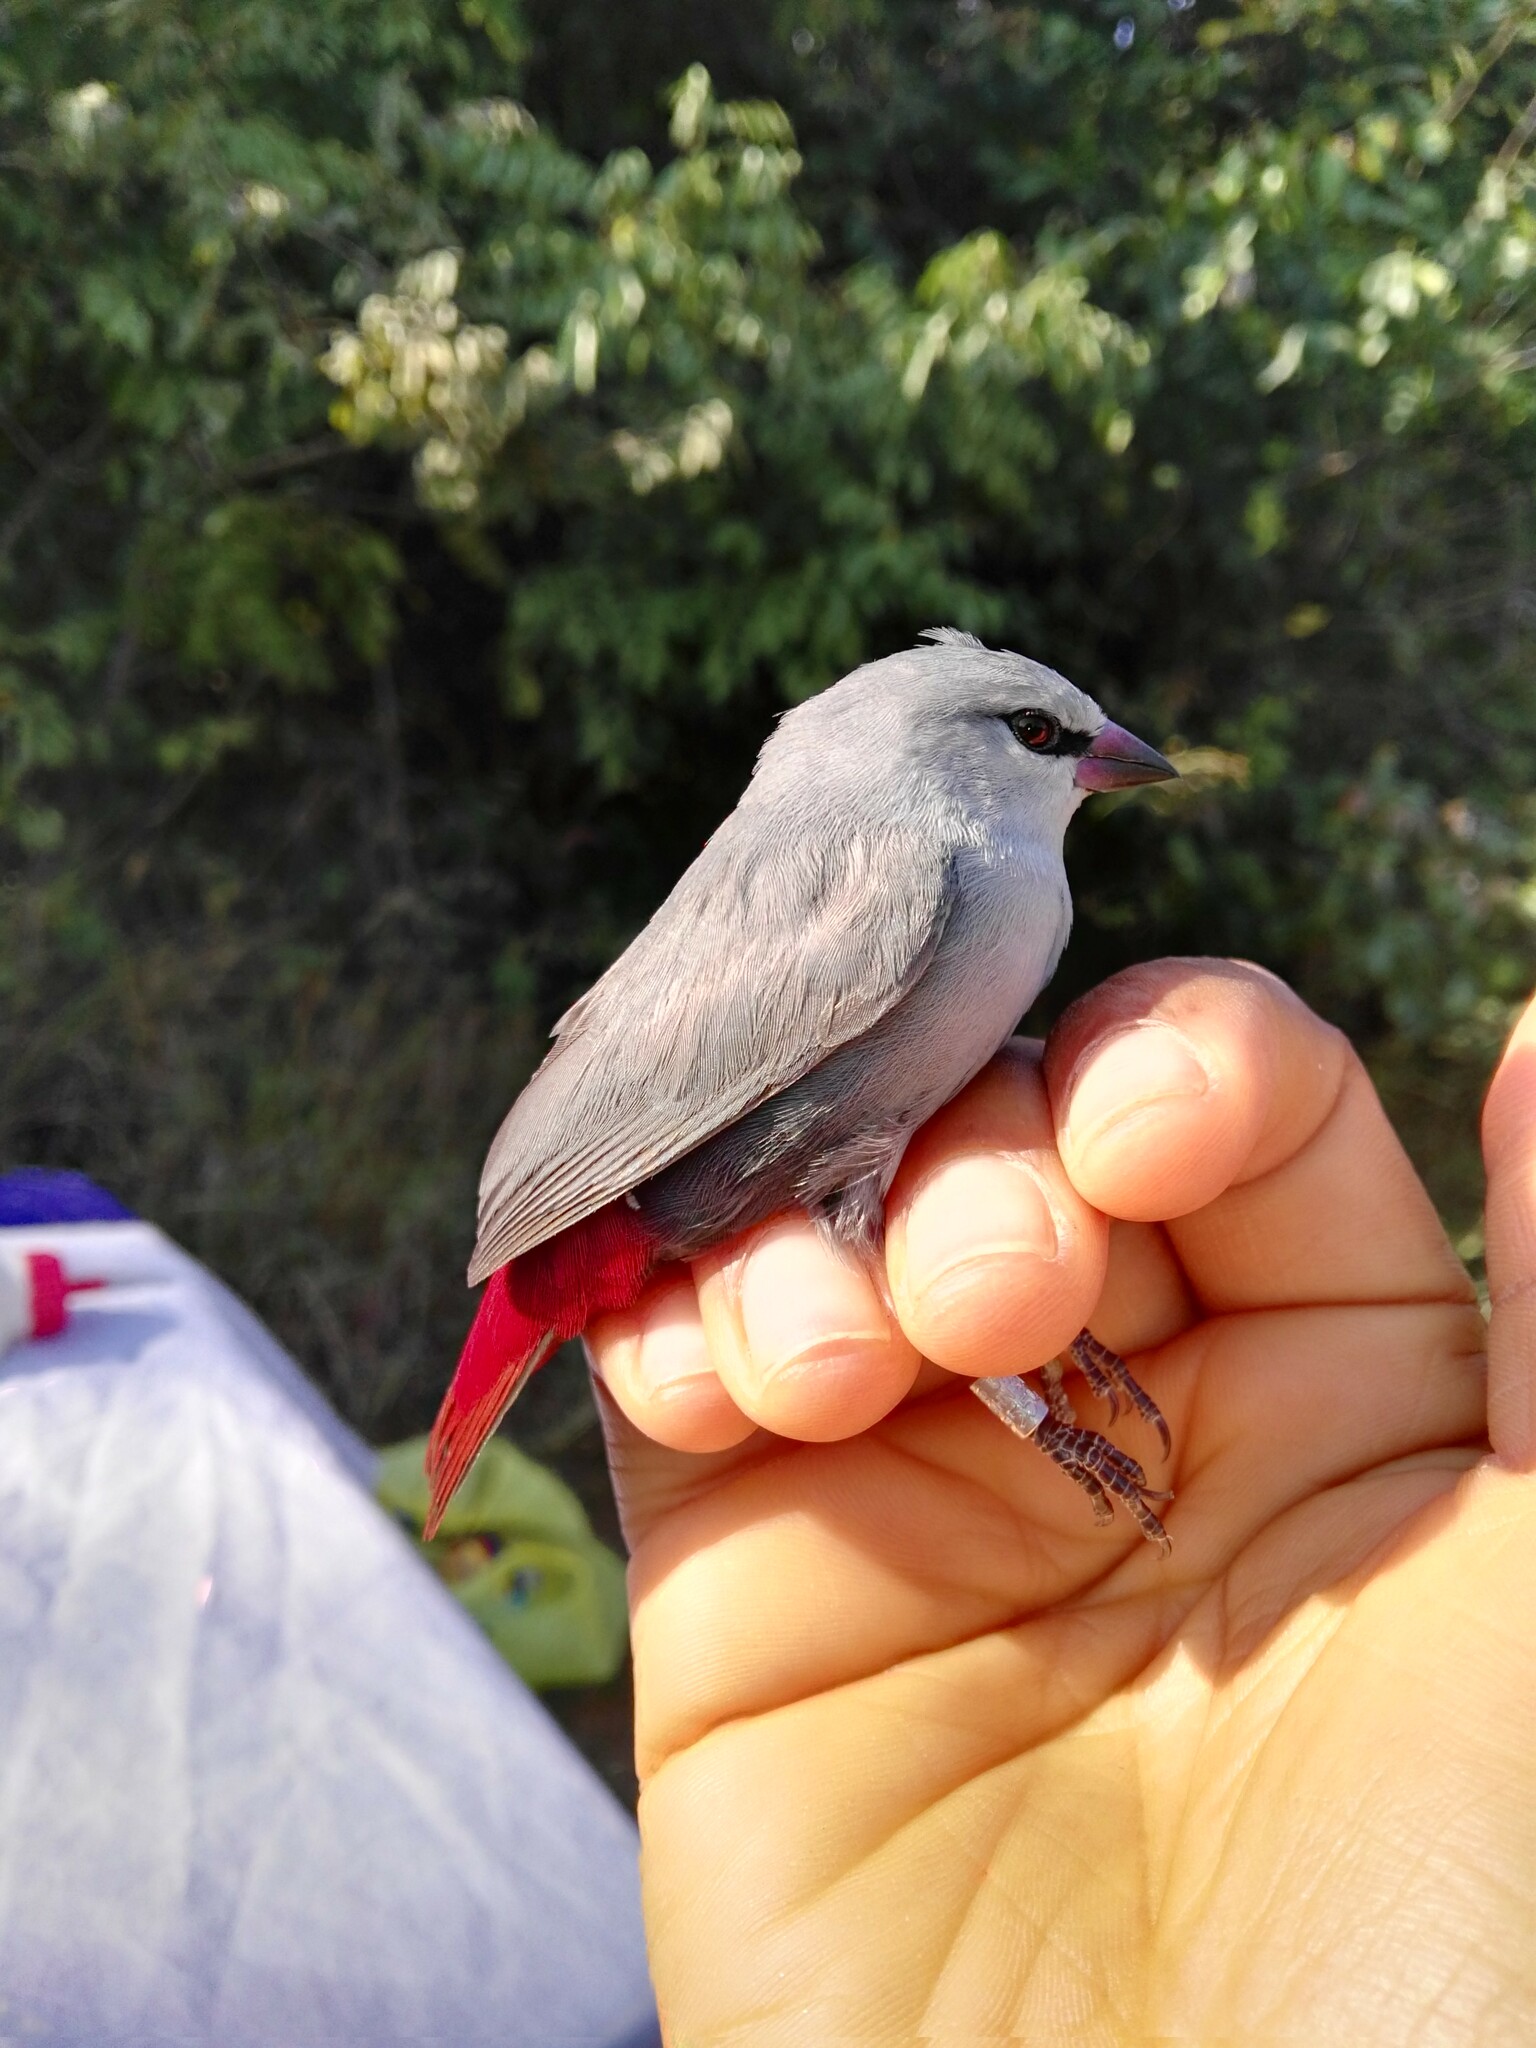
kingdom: Animalia
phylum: Chordata
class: Aves
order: Passeriformes
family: Estrildidae
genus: Estrilda
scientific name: Estrilda caerulescens
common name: Lavender waxbill
